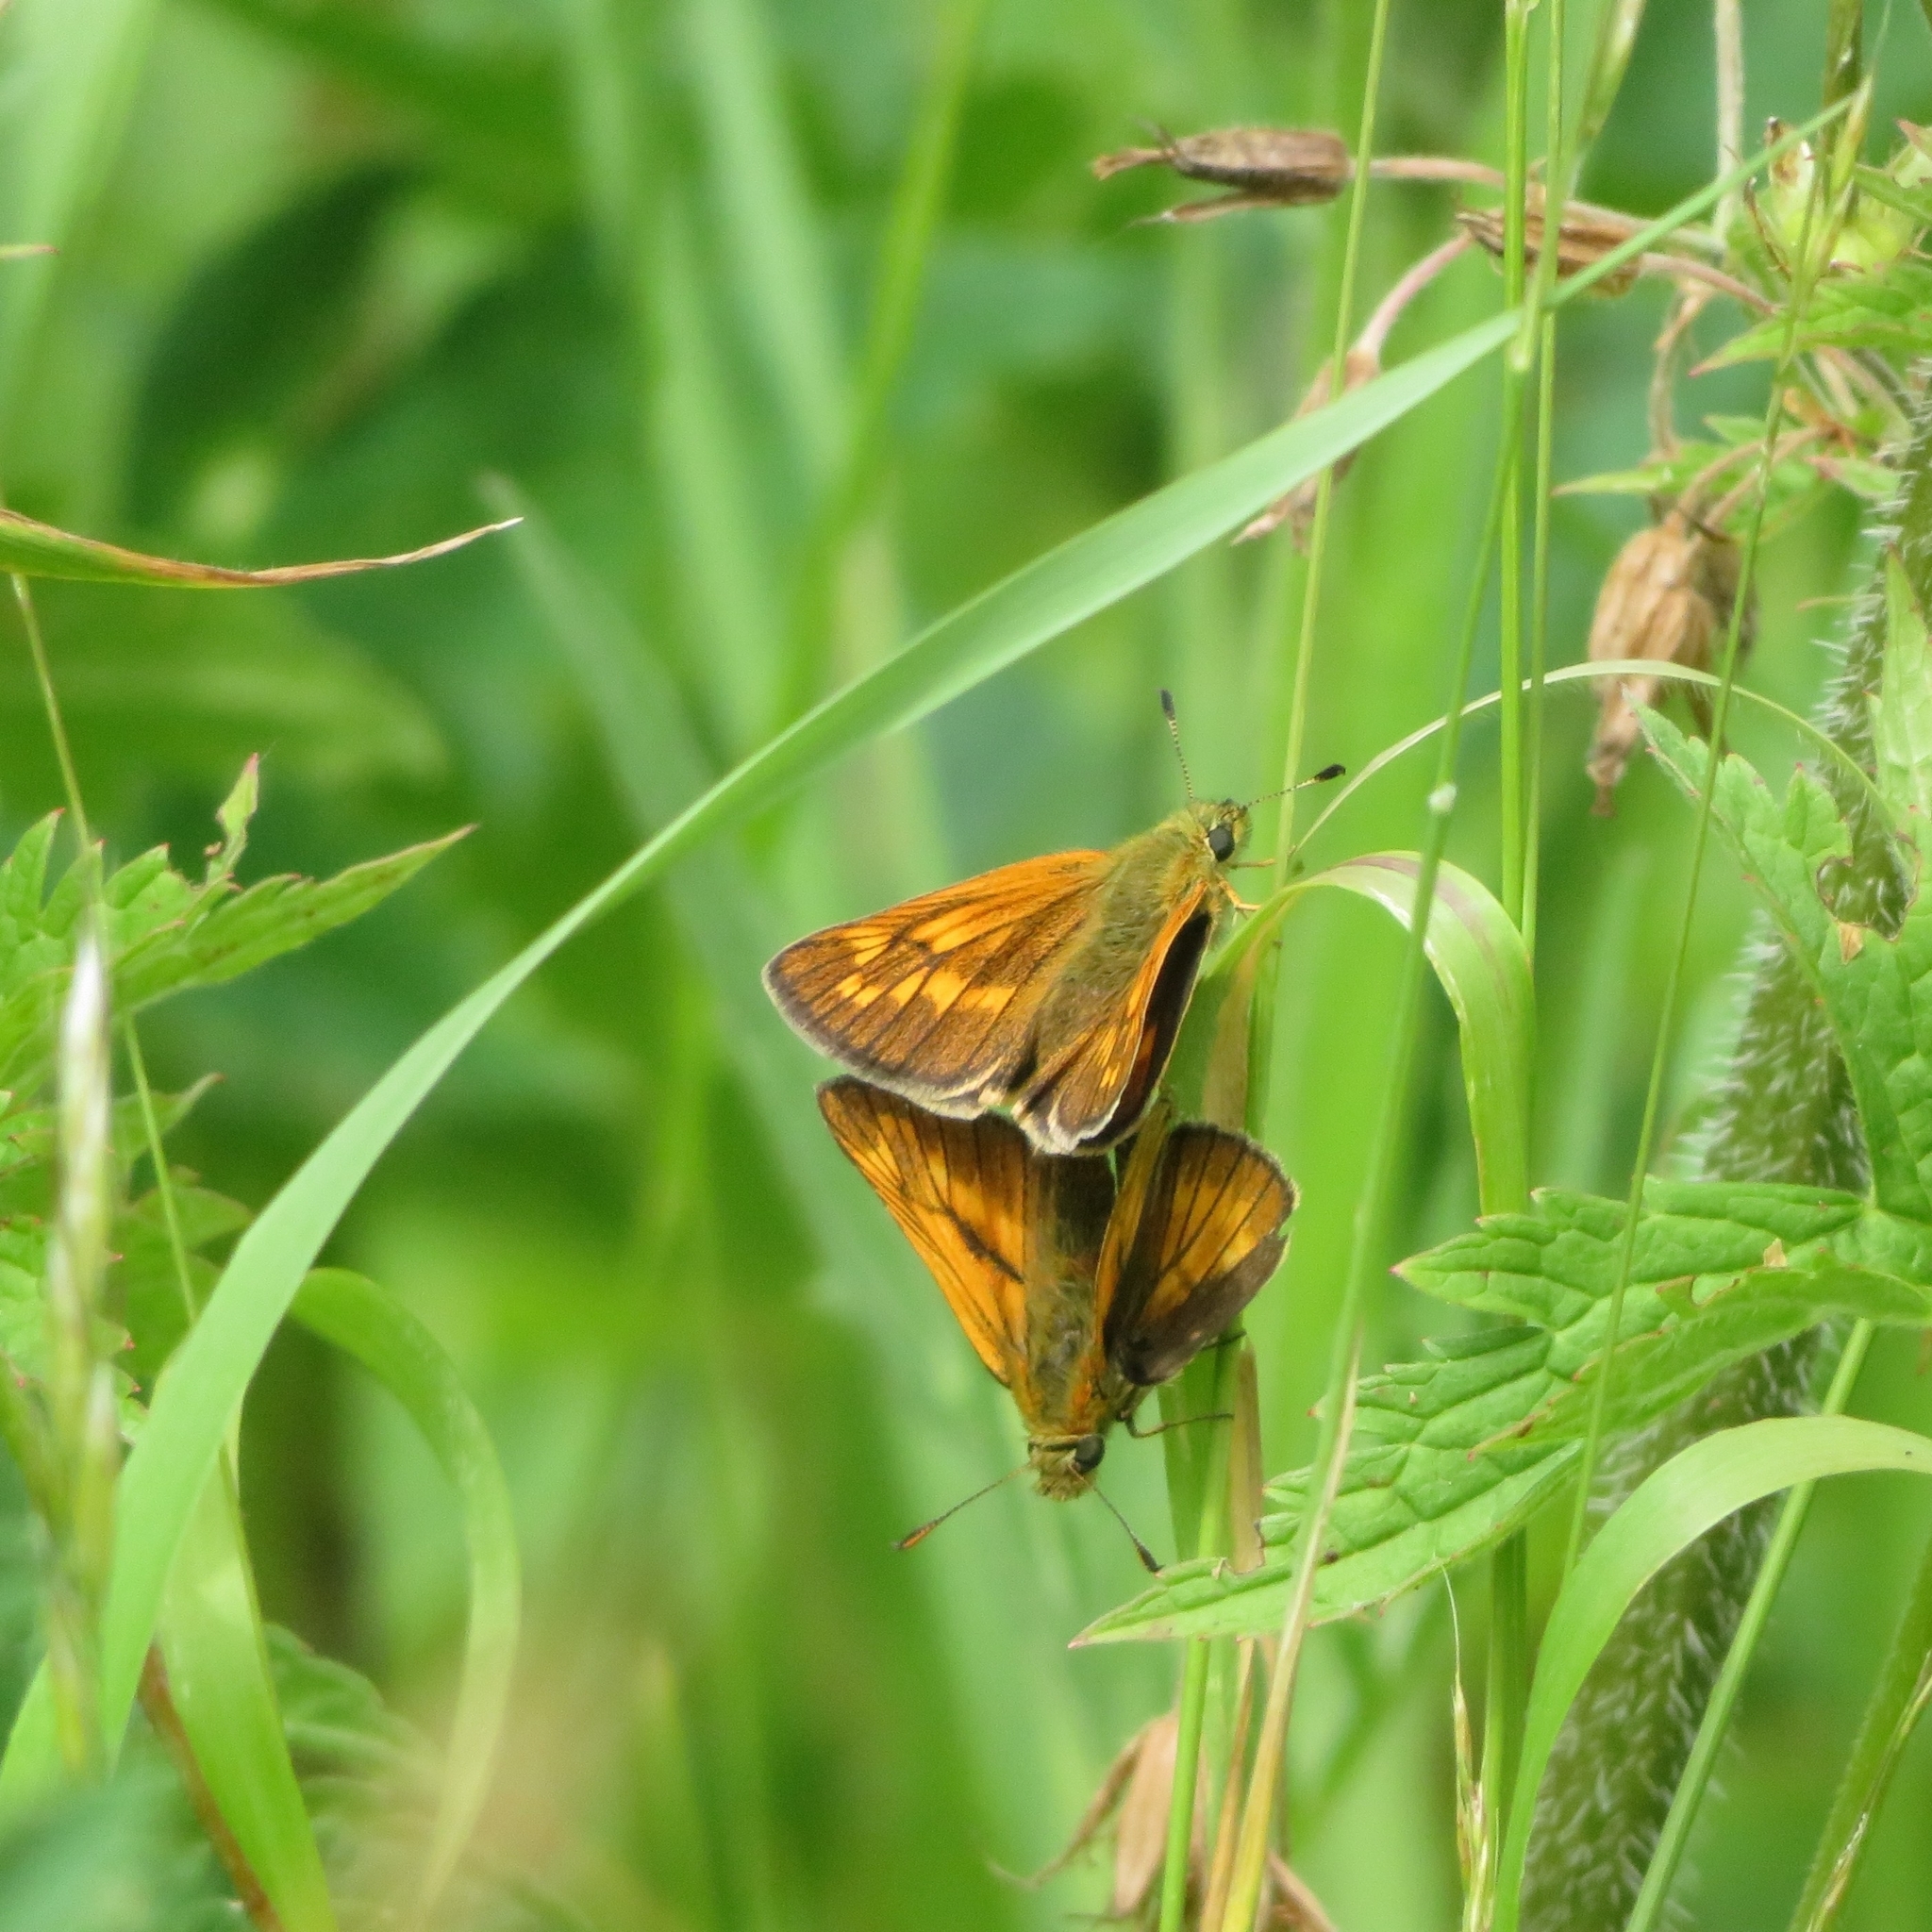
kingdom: Animalia
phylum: Arthropoda
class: Insecta
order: Lepidoptera
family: Hesperiidae
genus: Ochlodes
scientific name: Ochlodes venata
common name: Large skipper
